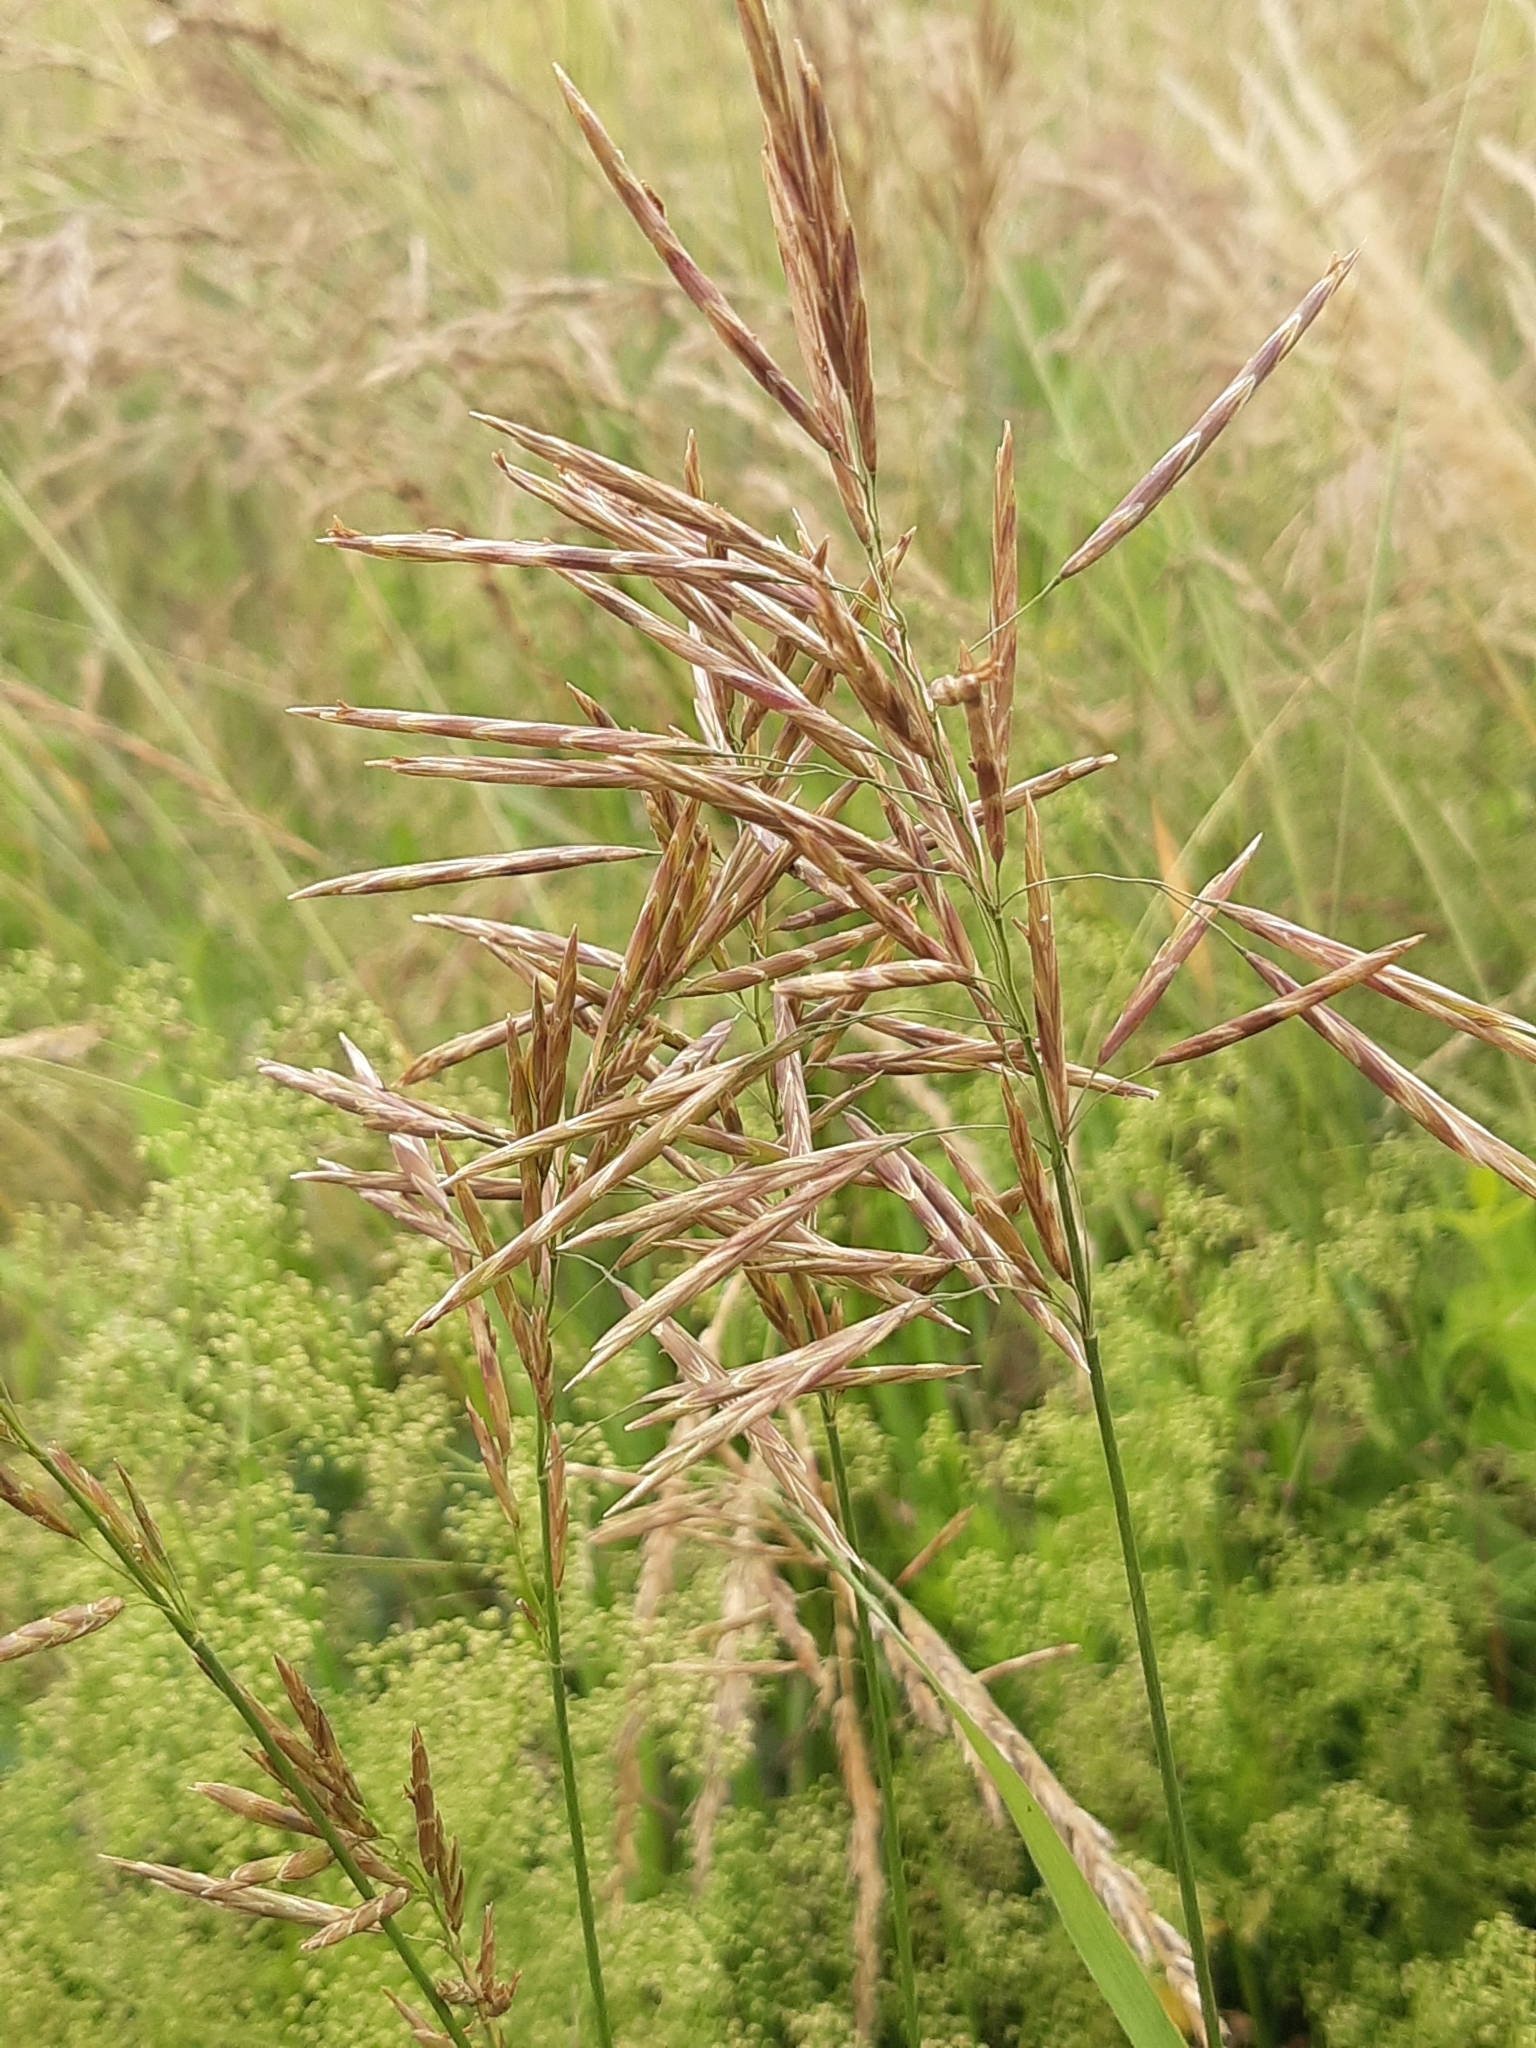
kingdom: Plantae
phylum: Tracheophyta
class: Liliopsida
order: Poales
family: Poaceae
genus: Bromus
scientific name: Bromus inermis
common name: Smooth brome
